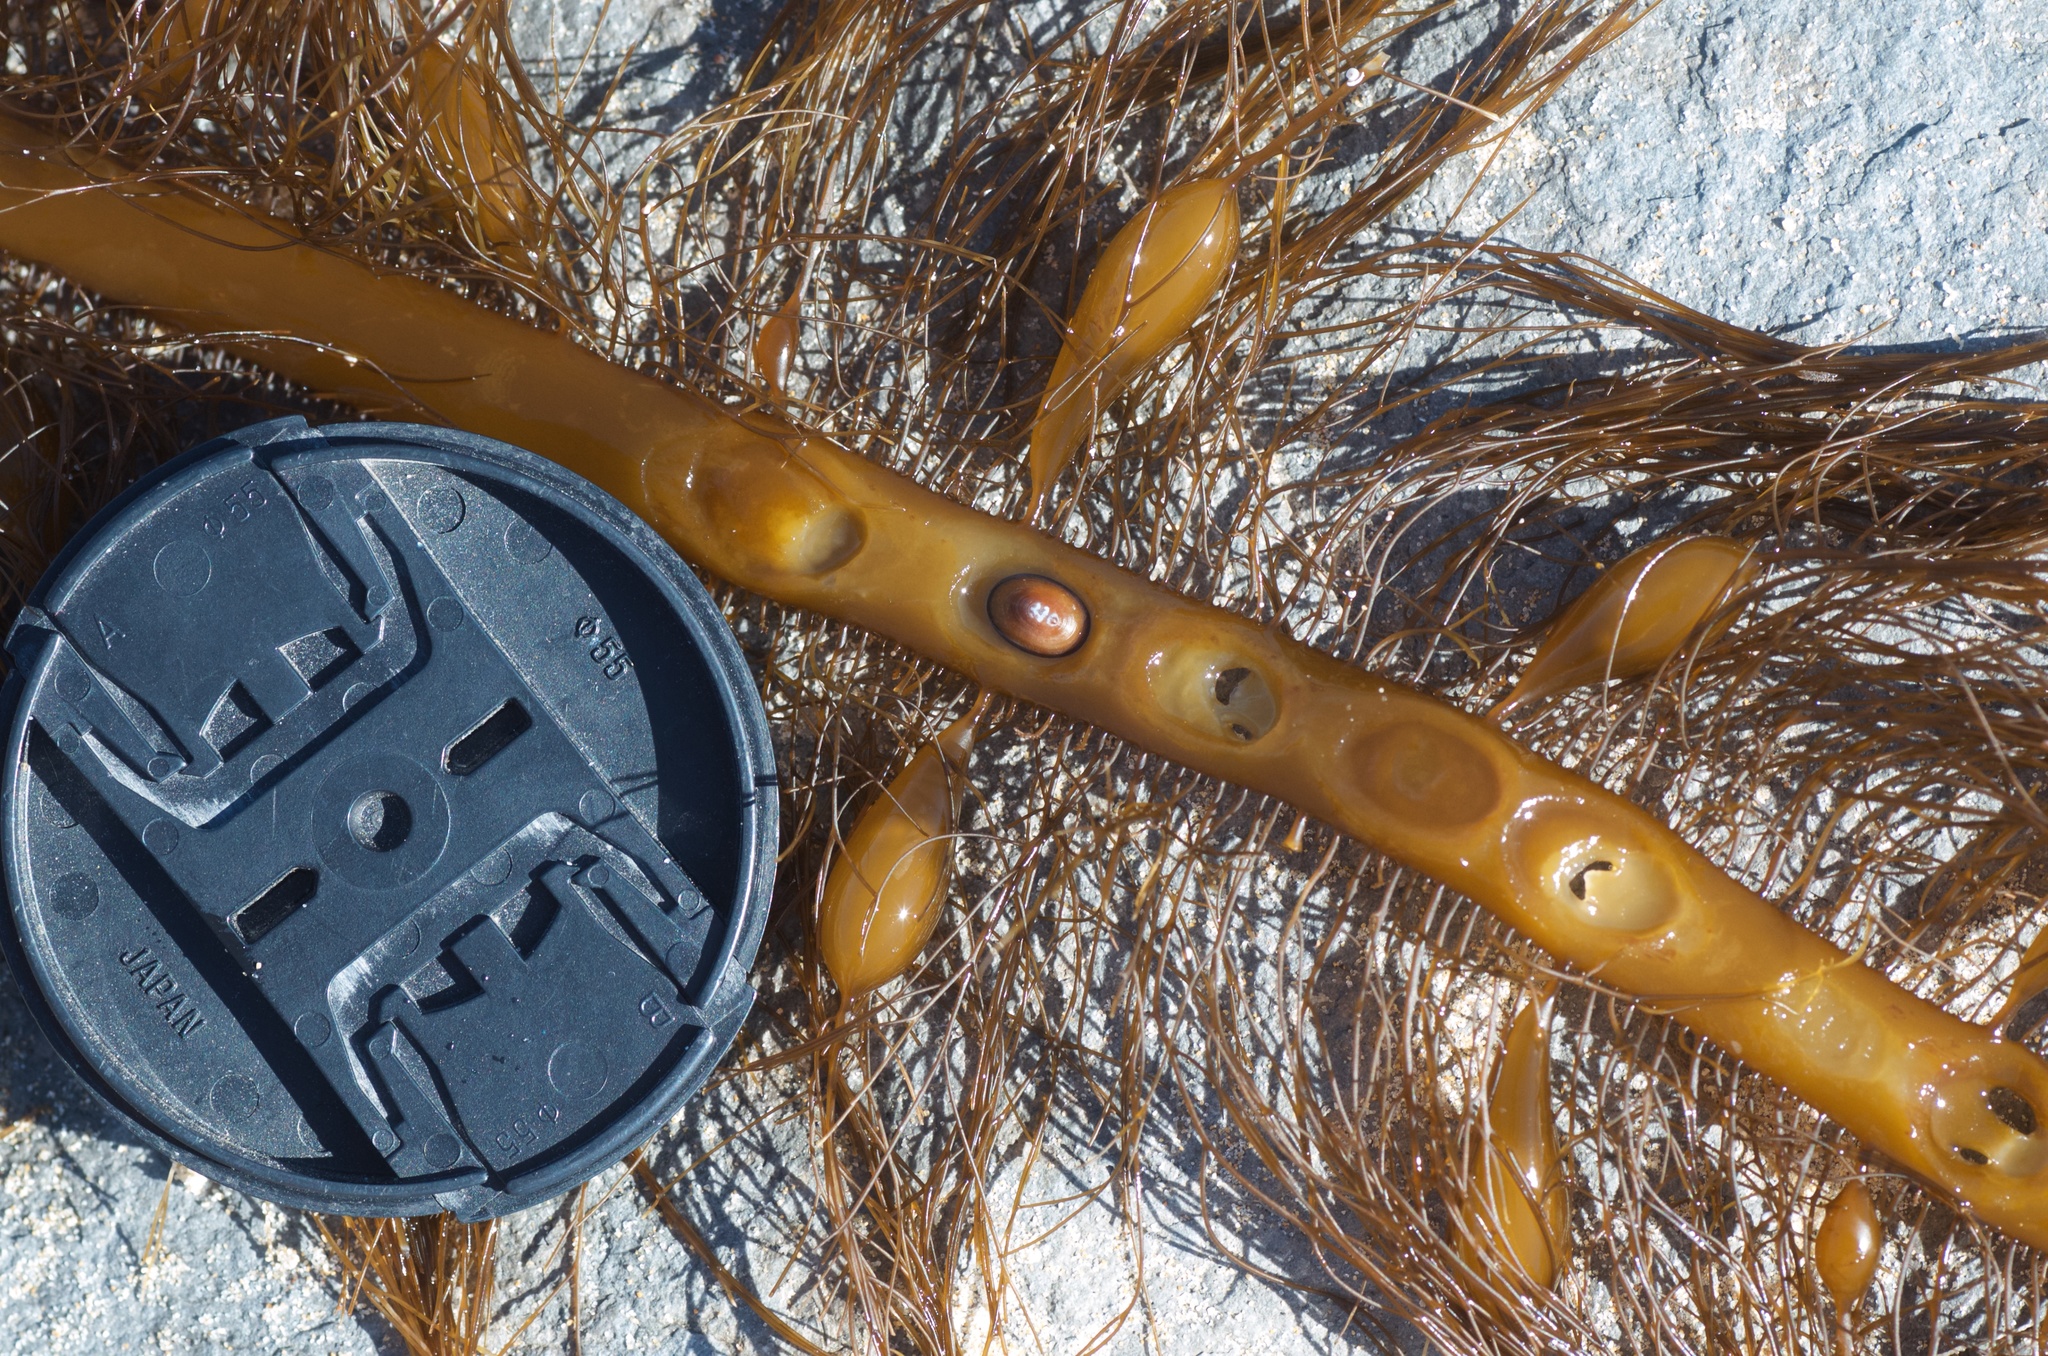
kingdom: Chromista
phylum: Ochrophyta
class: Phaeophyceae
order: Laminariales
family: Lessoniaceae
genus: Egregia
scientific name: Egregia menziesii
